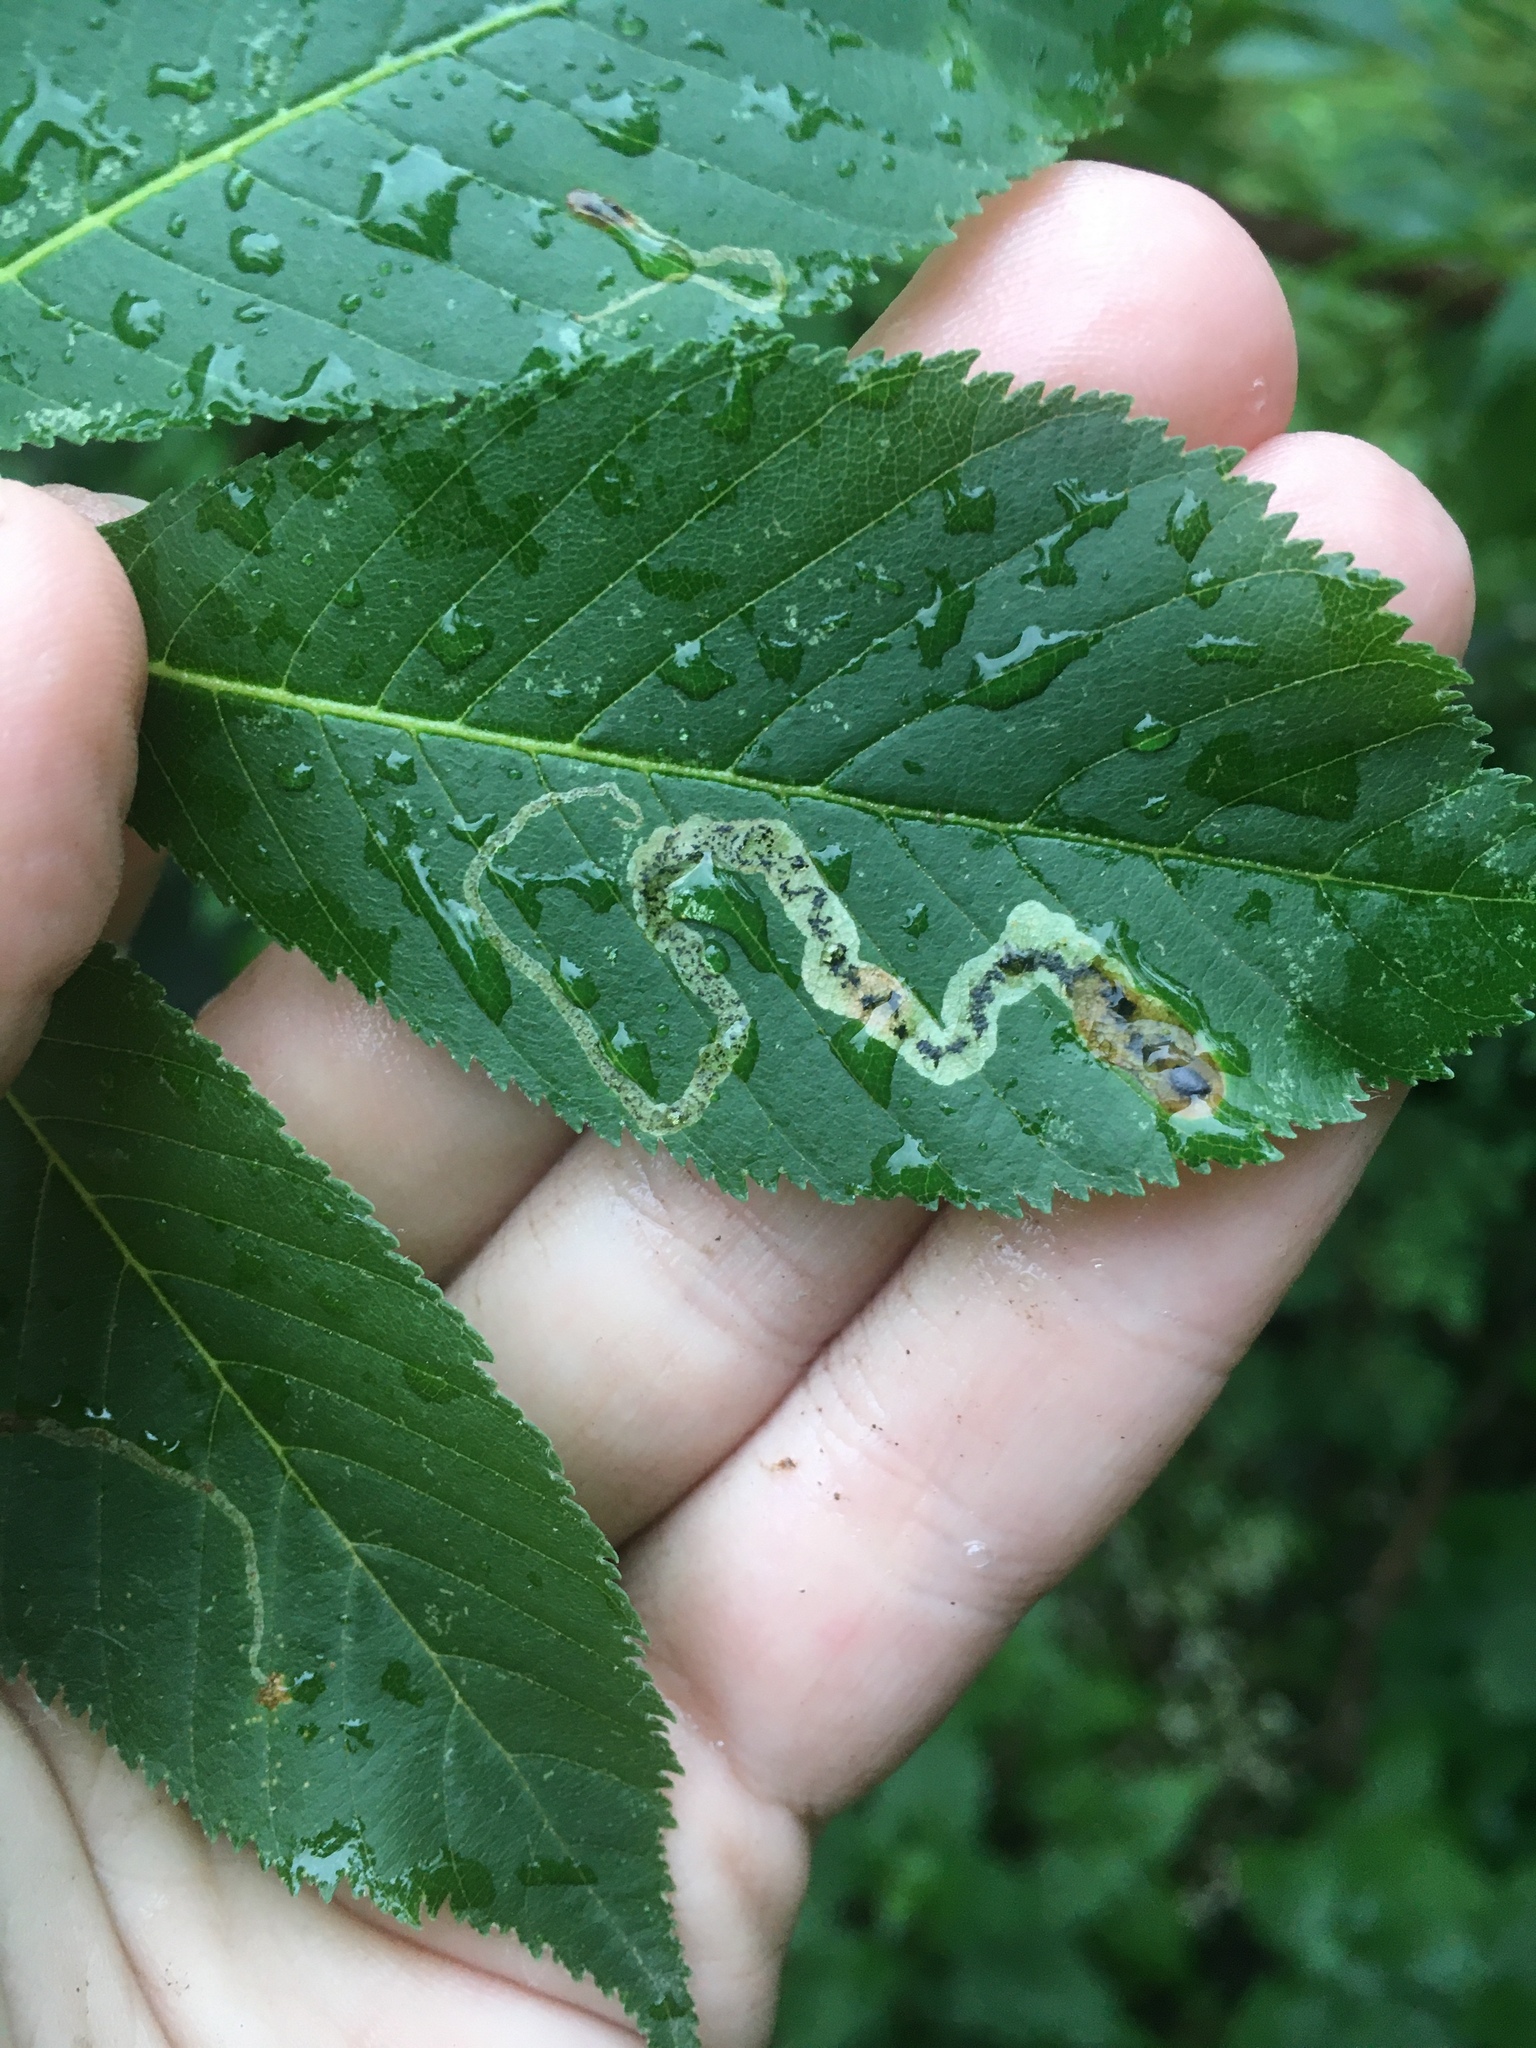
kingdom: Animalia
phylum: Arthropoda
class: Insecta
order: Diptera
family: Agromyzidae
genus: Phytomyza
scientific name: Phytomyza aesculi
